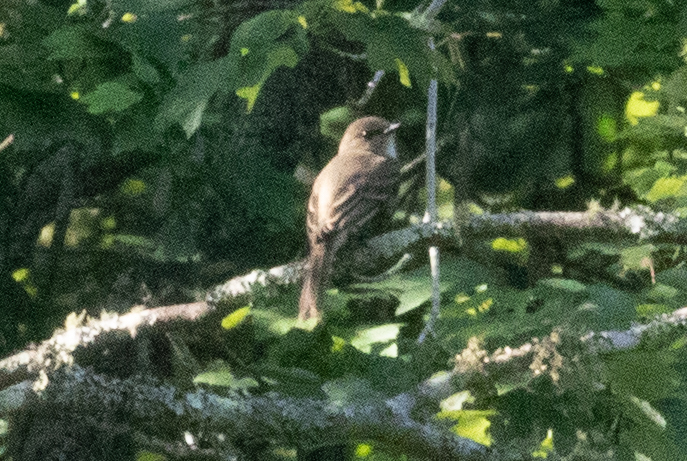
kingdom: Animalia
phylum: Chordata
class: Aves
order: Passeriformes
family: Tyrannidae
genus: Sayornis
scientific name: Sayornis phoebe
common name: Eastern phoebe
